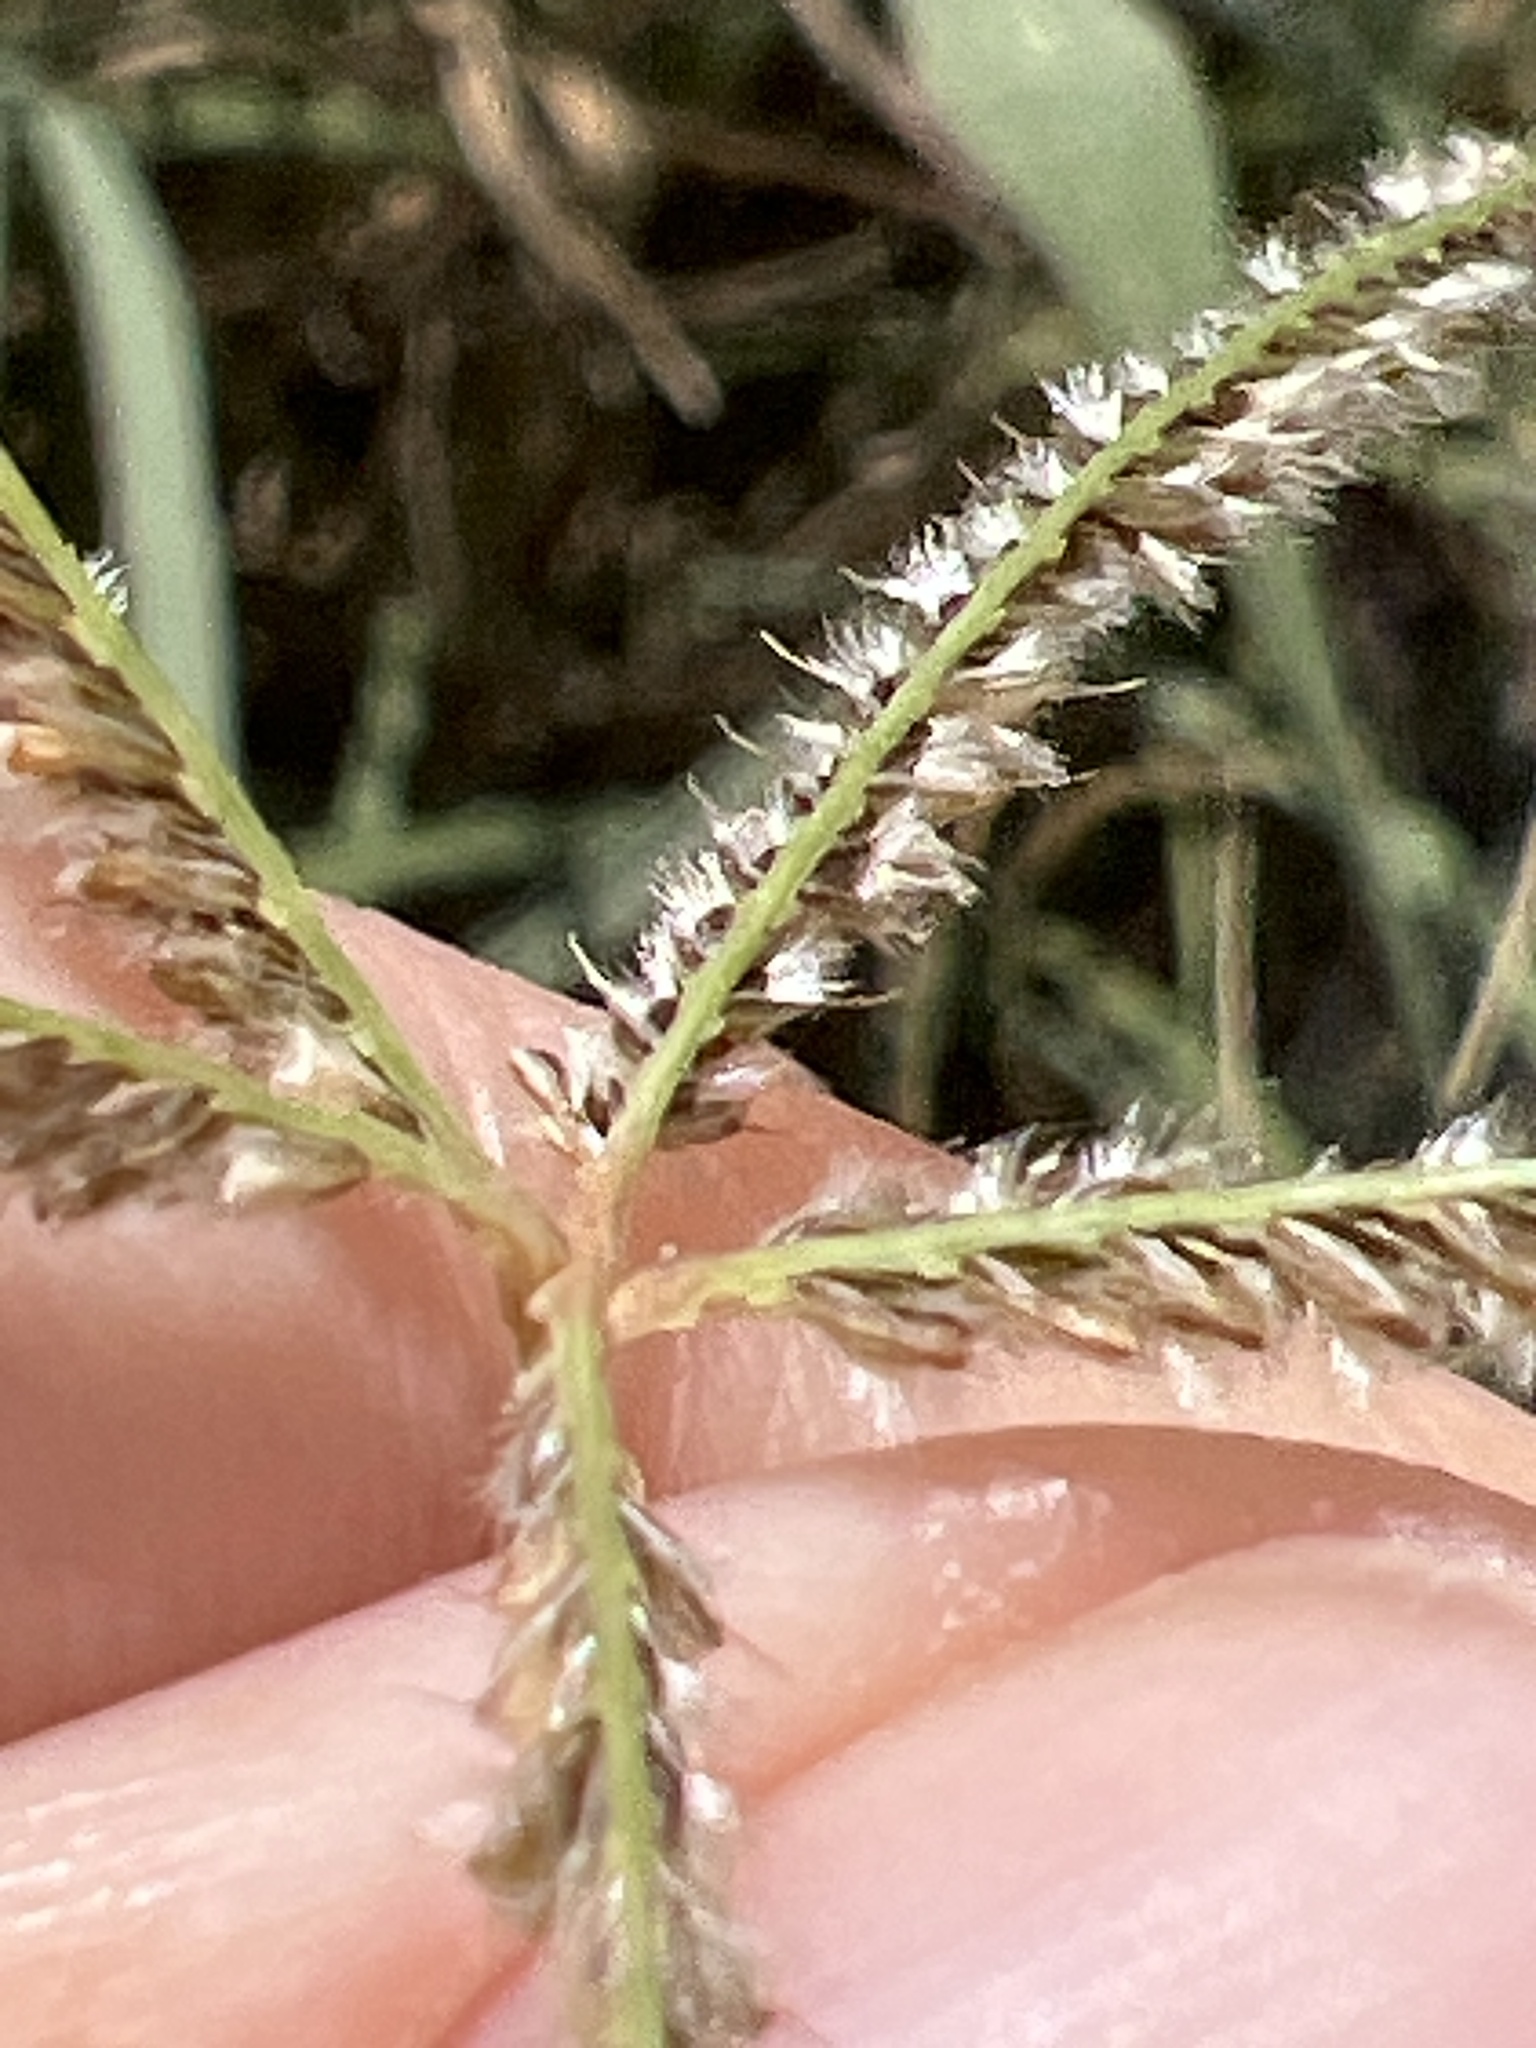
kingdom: Plantae
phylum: Tracheophyta
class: Liliopsida
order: Poales
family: Poaceae
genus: Stapfochloa
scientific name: Stapfochloa ciliata
